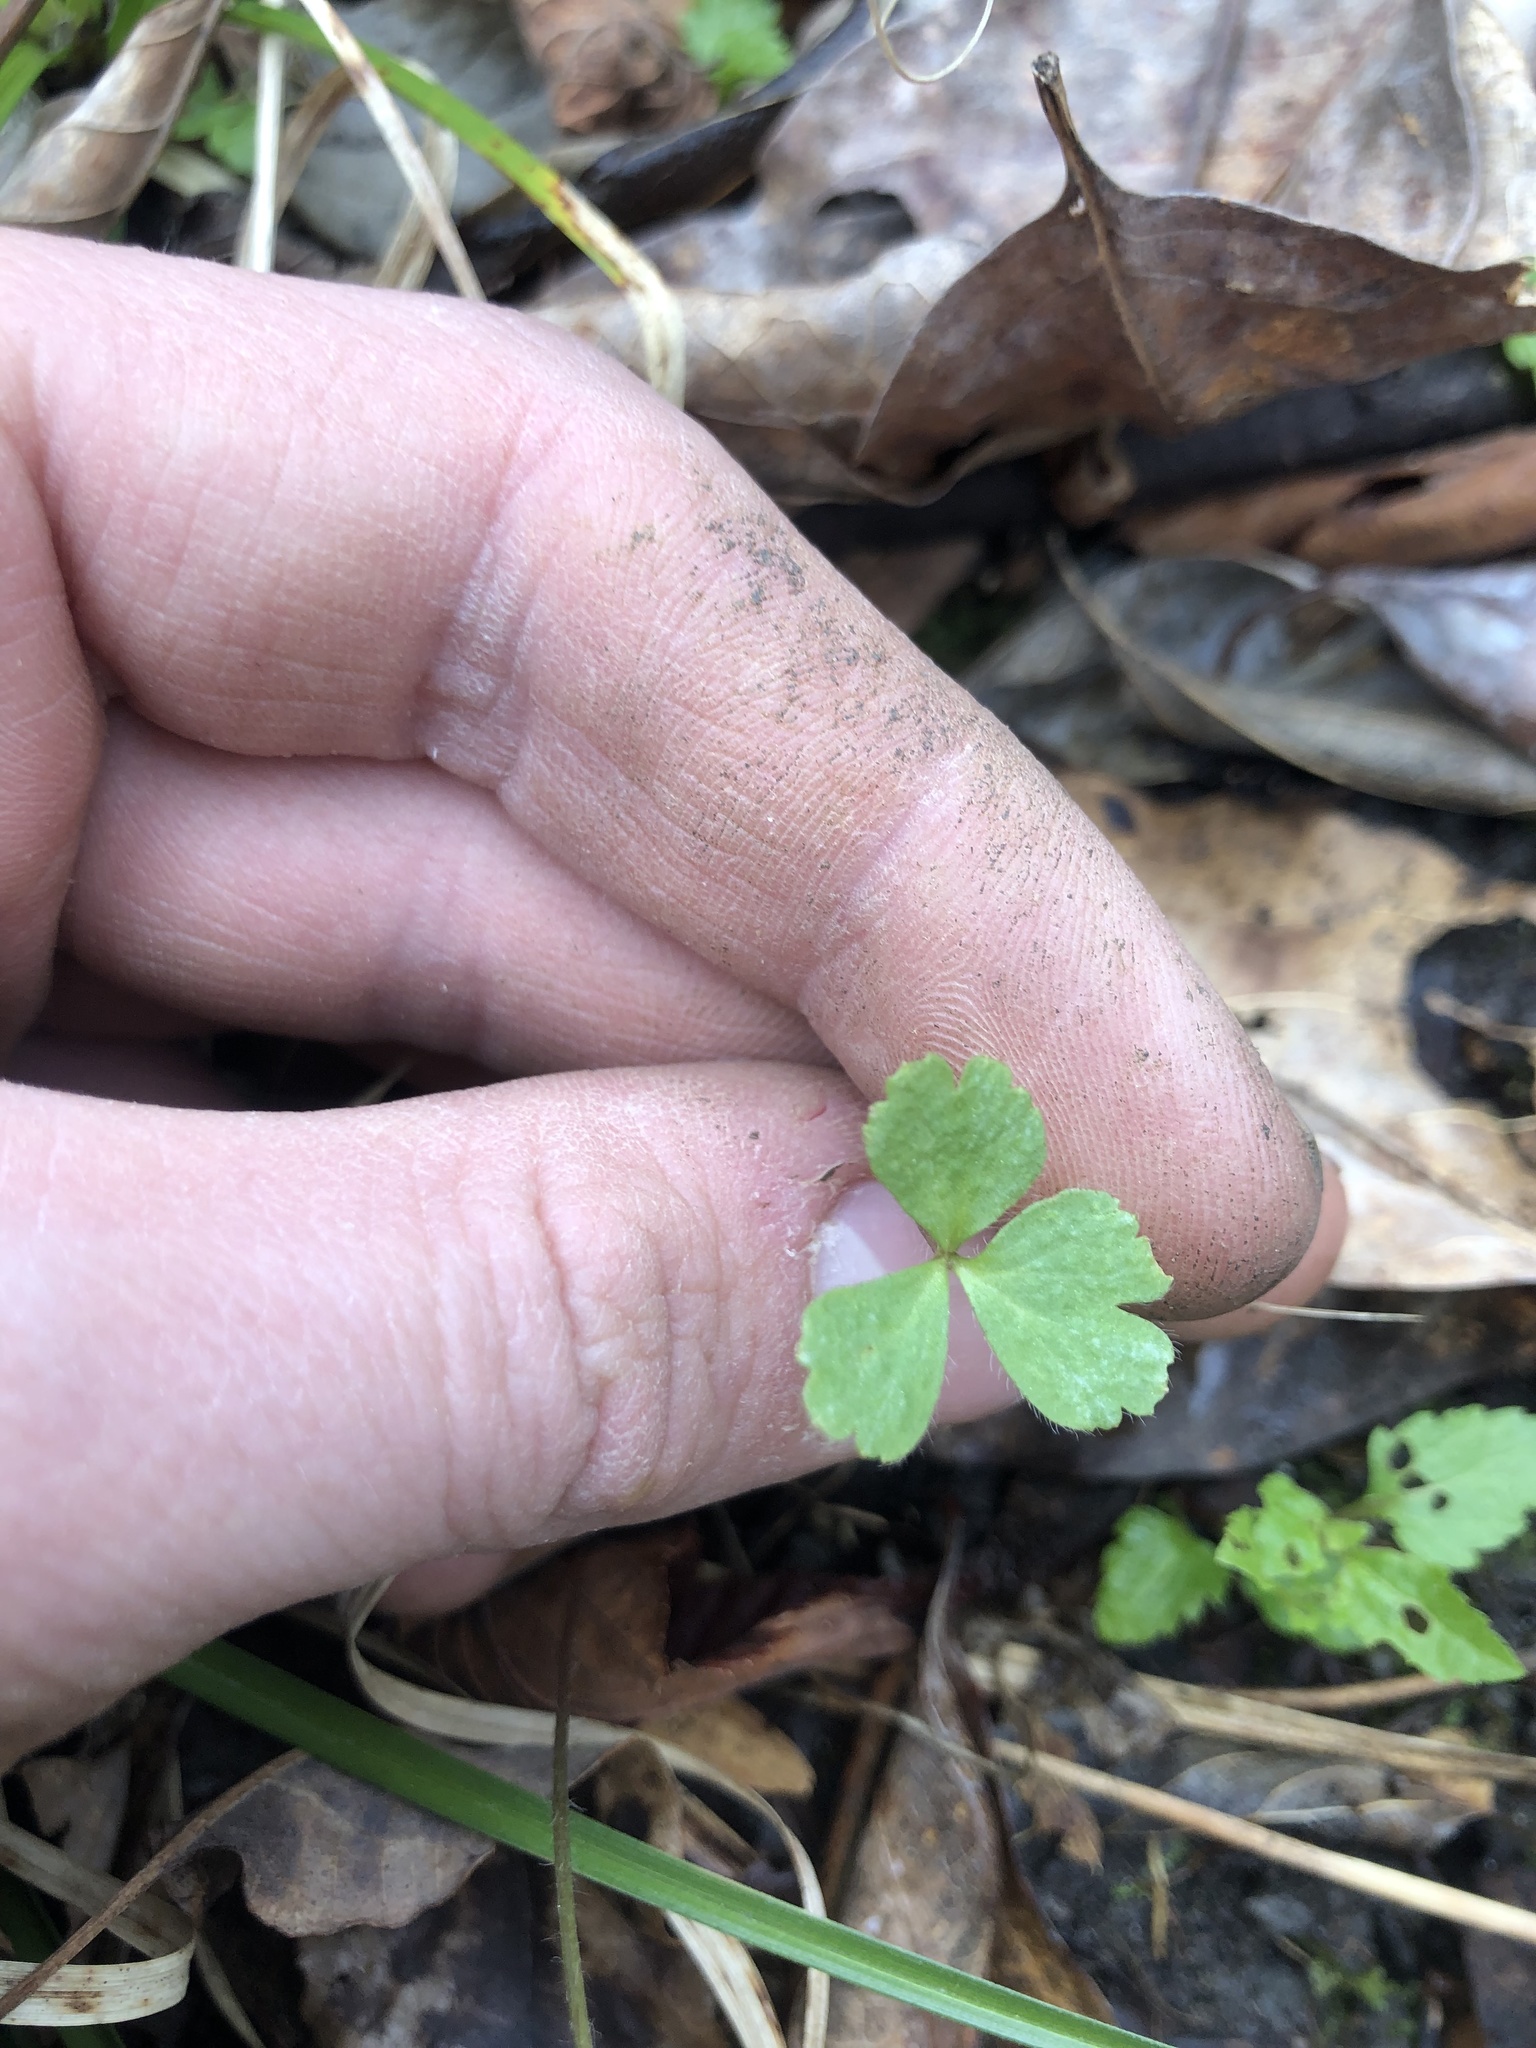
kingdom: Plantae
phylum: Tracheophyta
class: Magnoliopsida
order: Ranunculales
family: Ranunculaceae
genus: Anemone
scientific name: Anemone berlandieri
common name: Ten-petal anemone
